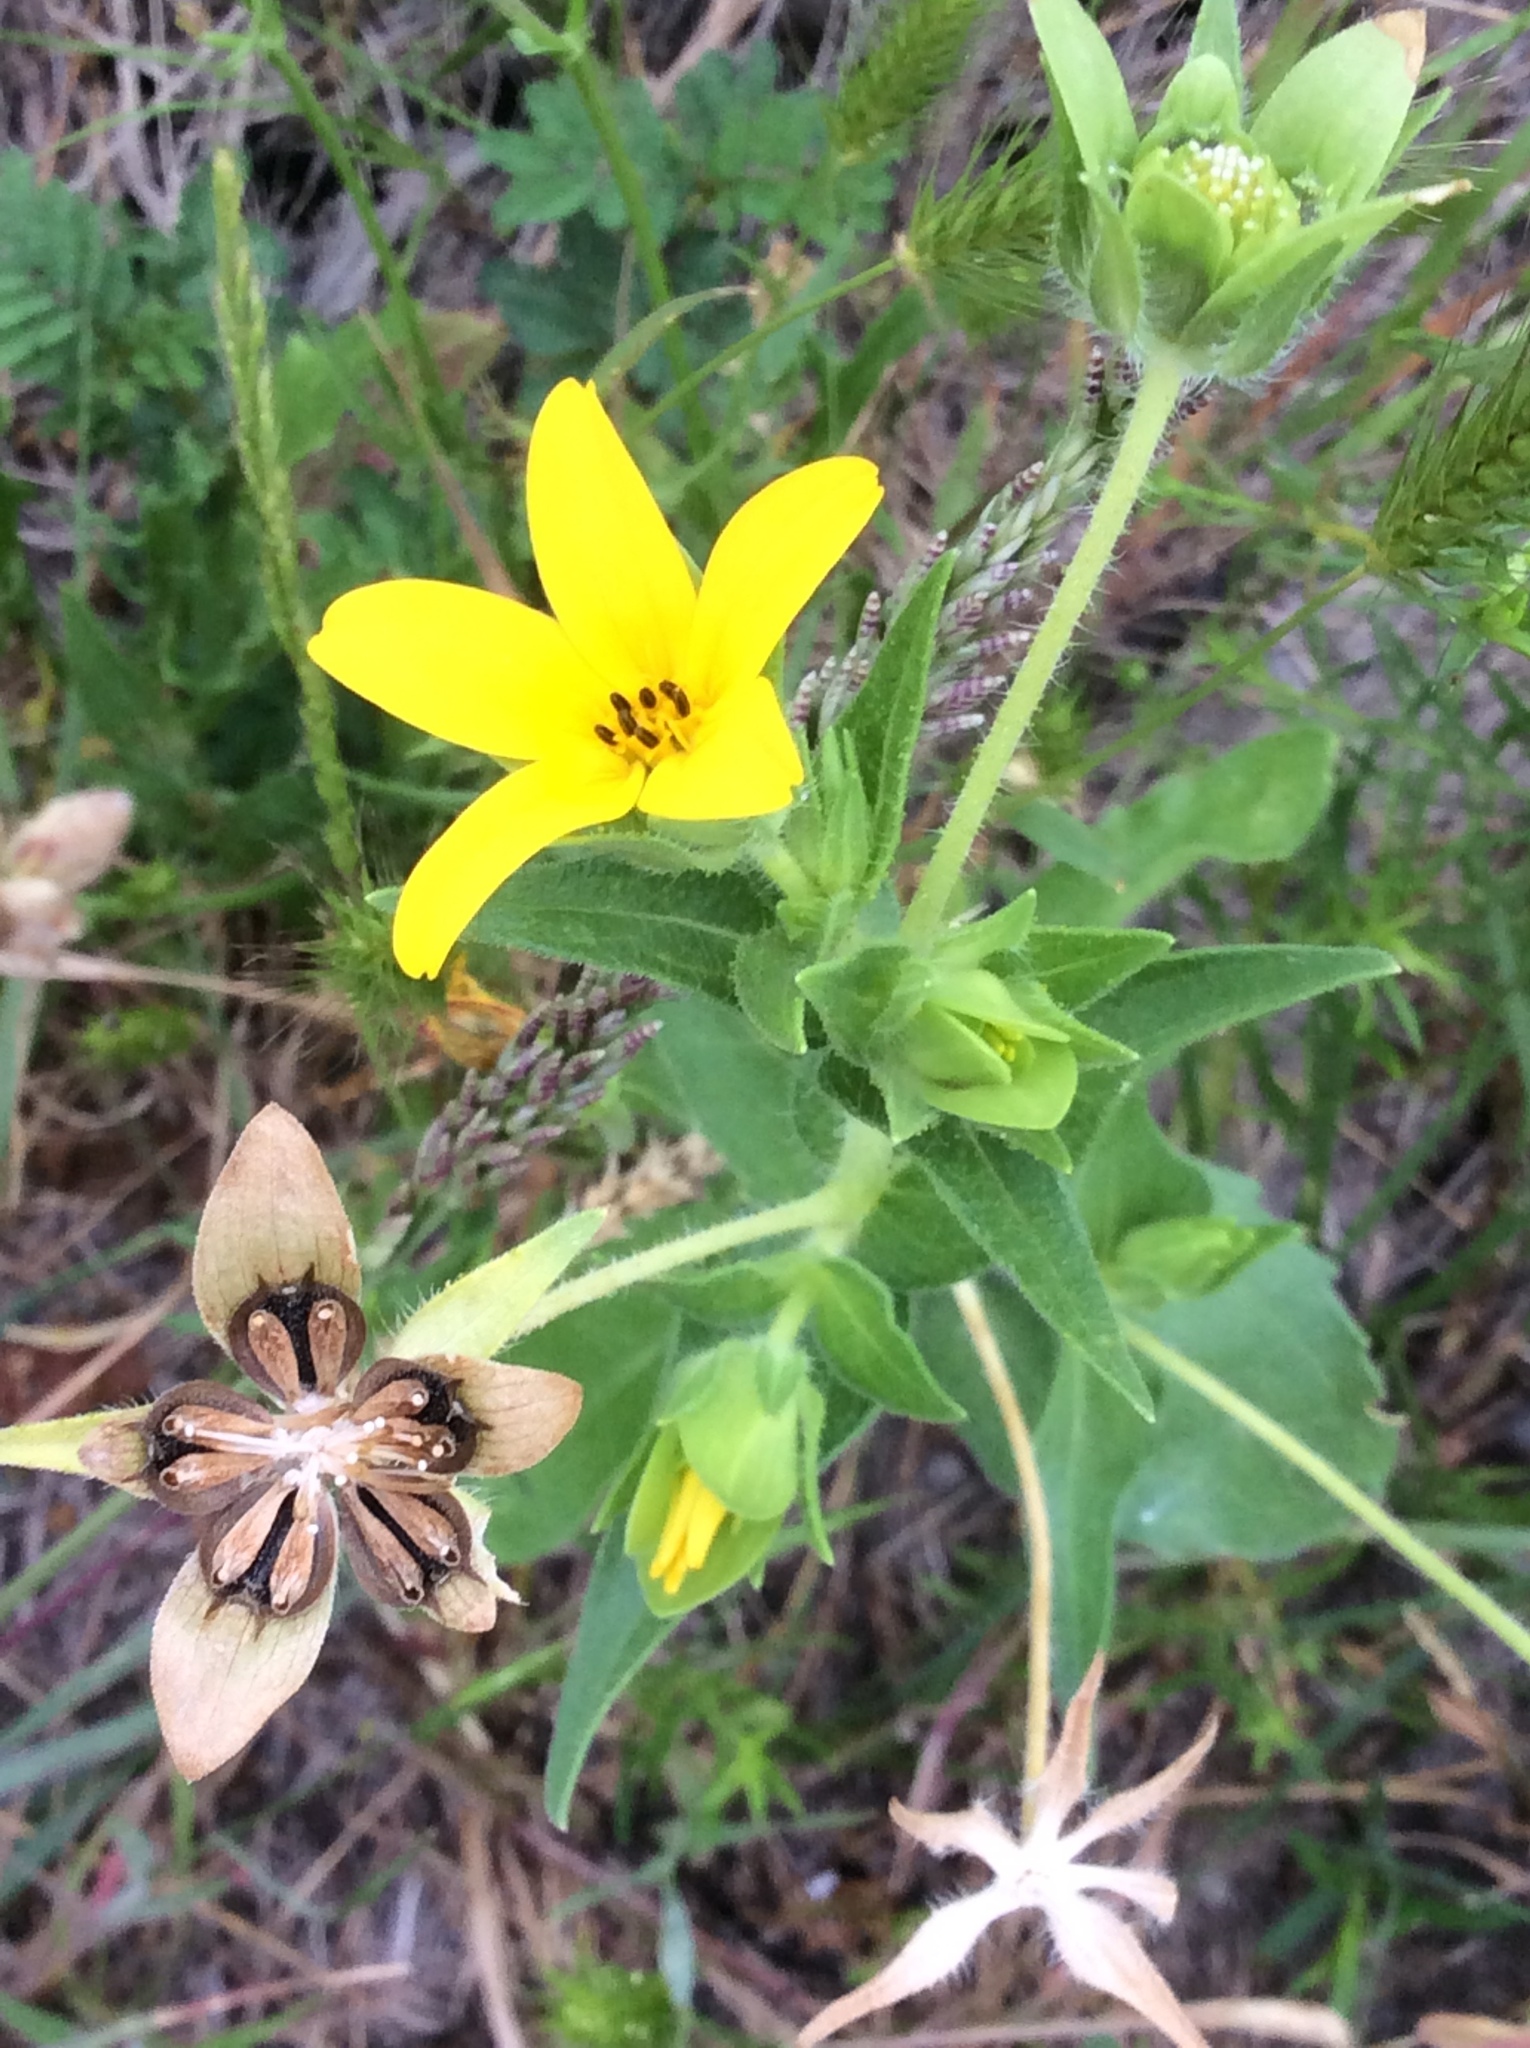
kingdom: Plantae
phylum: Tracheophyta
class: Magnoliopsida
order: Asterales
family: Asteraceae
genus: Lindheimera
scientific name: Lindheimera texana
